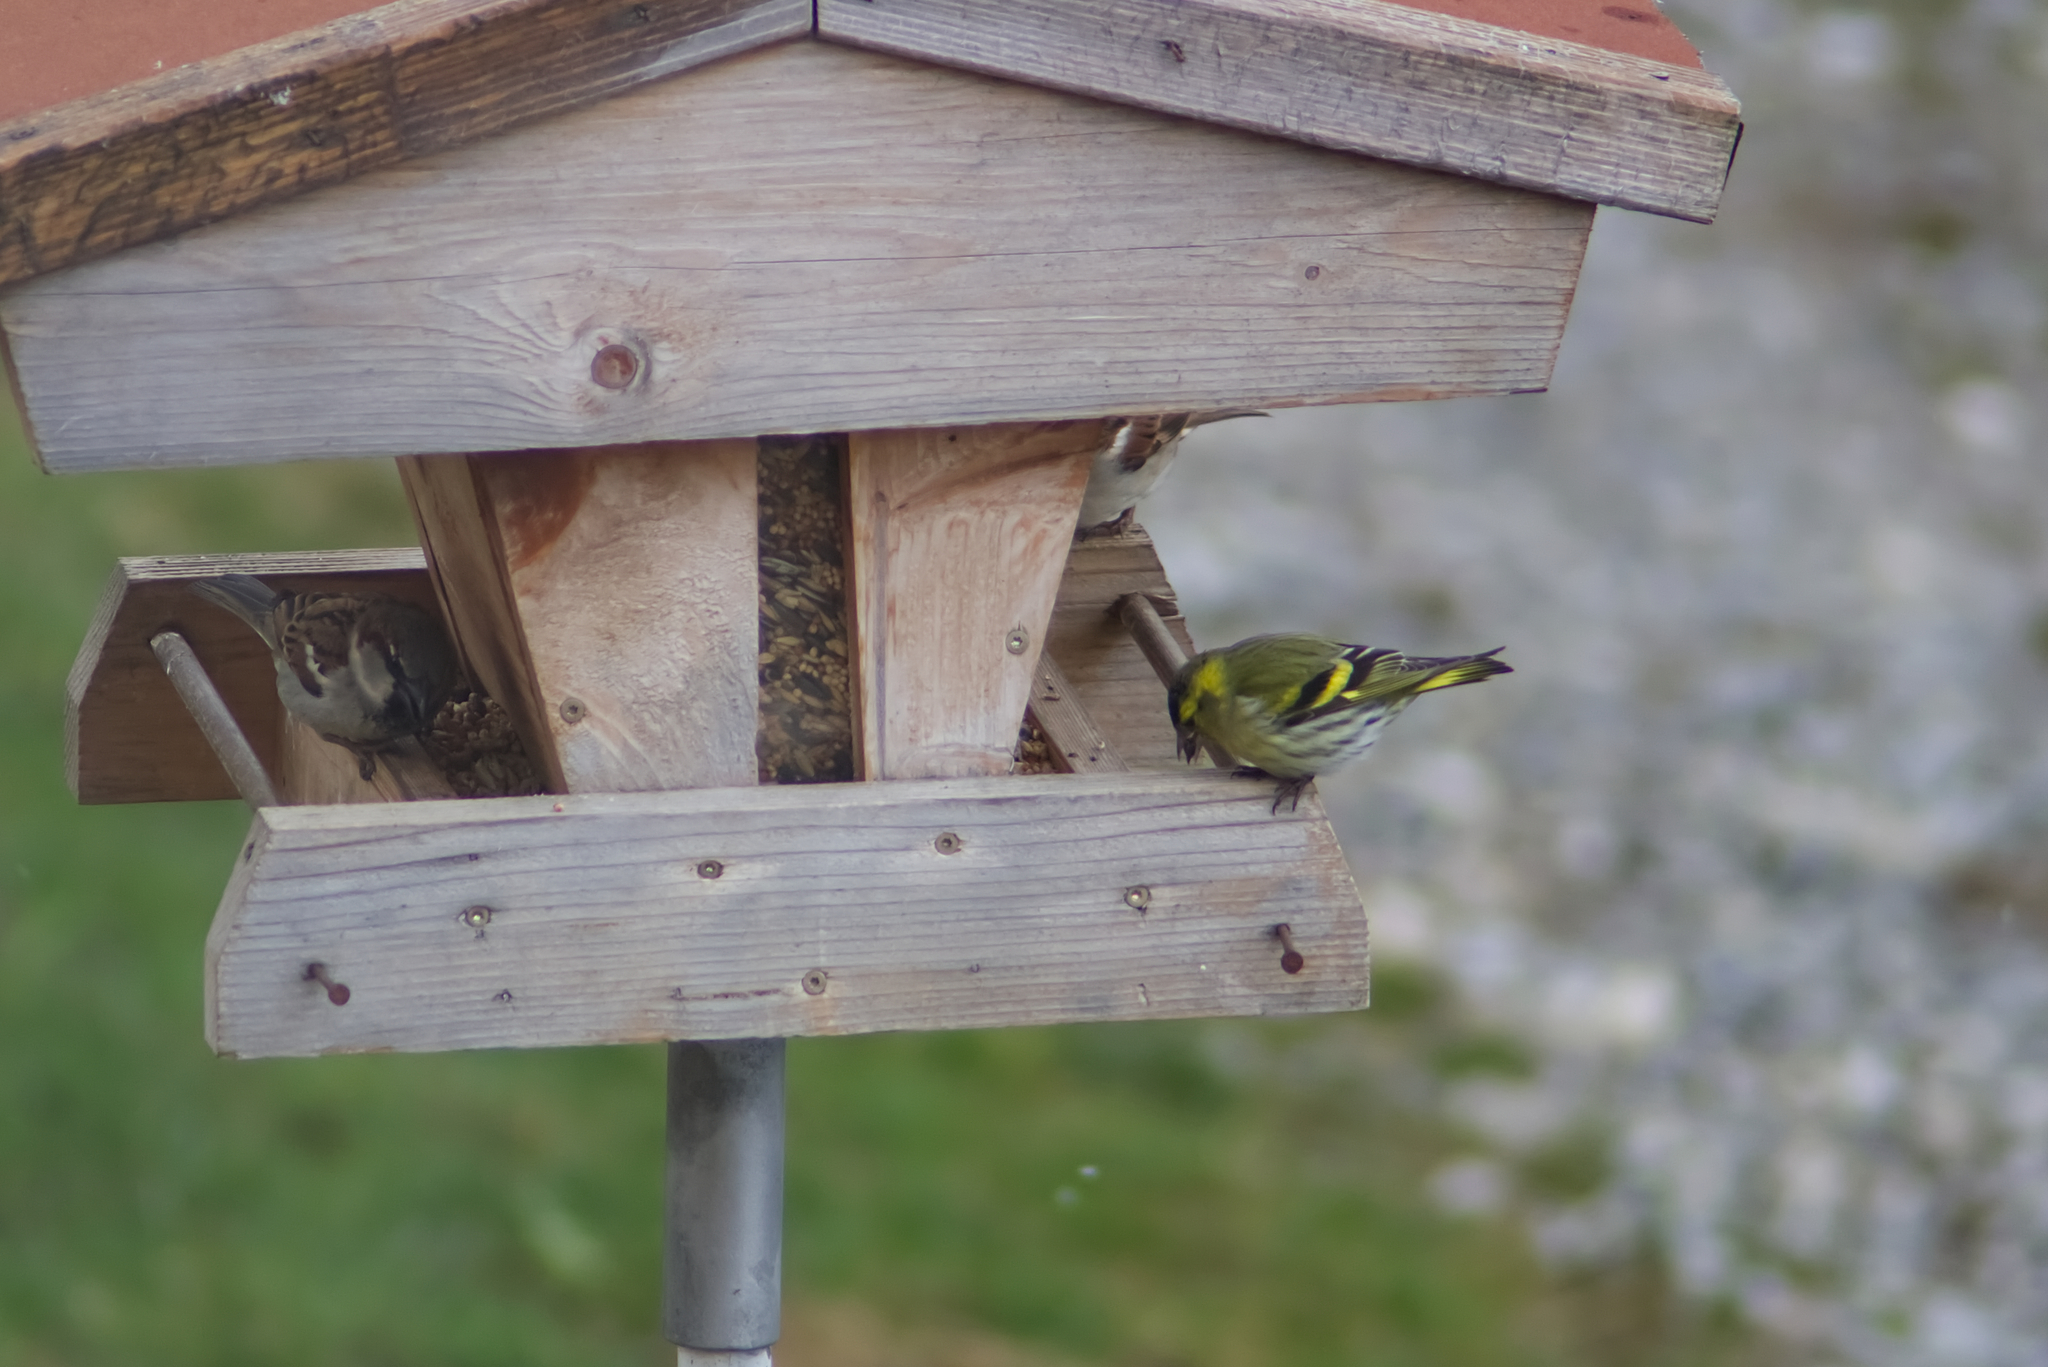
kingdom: Animalia
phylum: Chordata
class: Aves
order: Passeriformes
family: Fringillidae
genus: Spinus
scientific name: Spinus spinus
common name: Eurasian siskin
